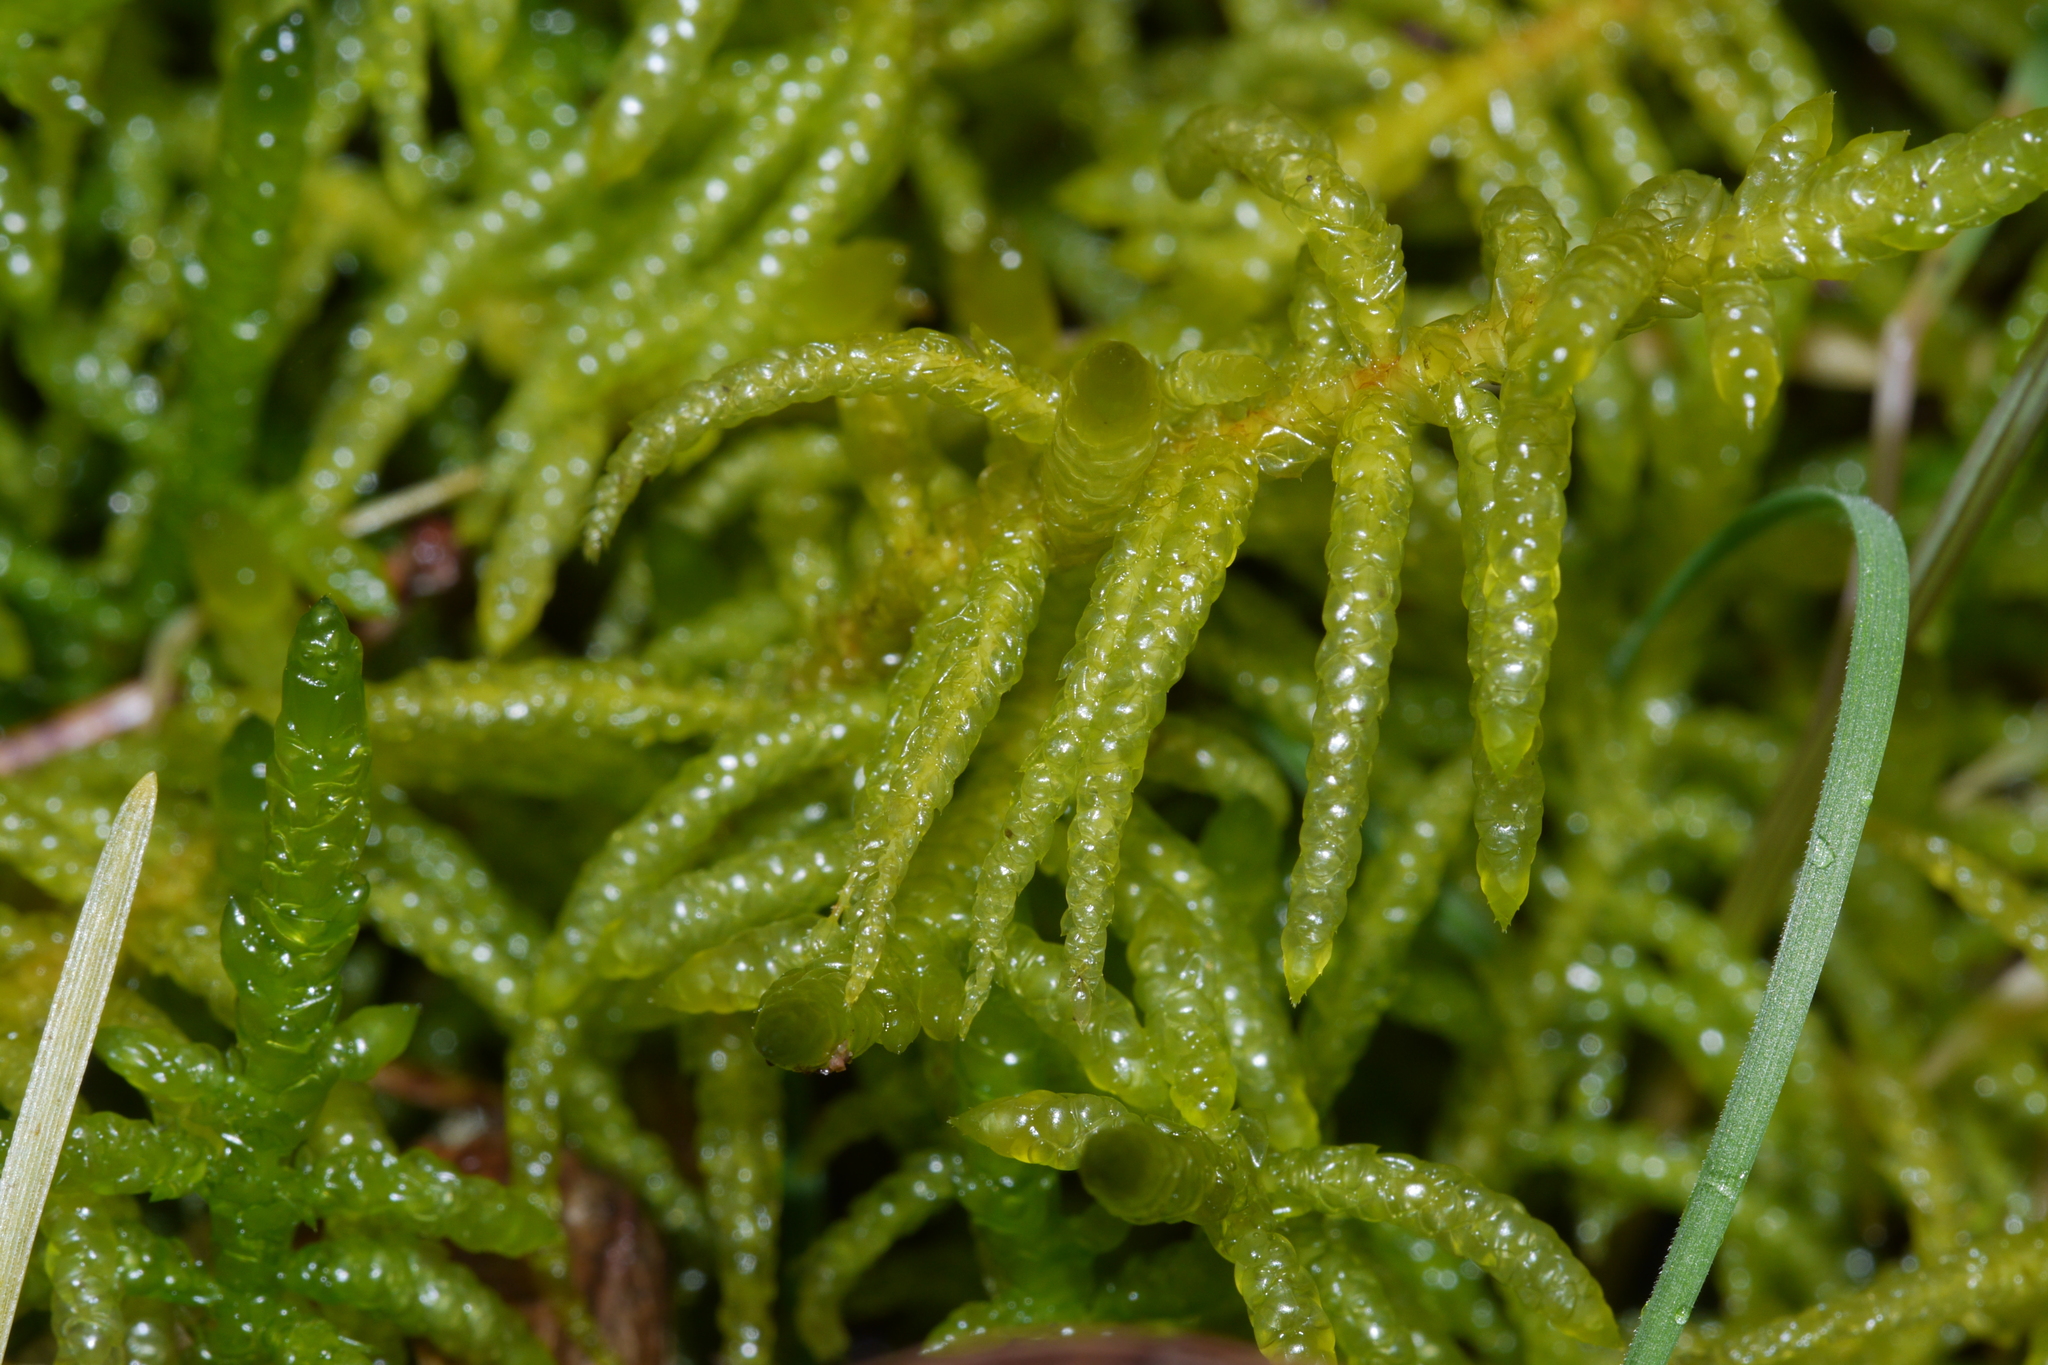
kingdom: Plantae
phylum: Bryophyta
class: Bryopsida
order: Hypnales
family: Brachytheciaceae
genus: Pseudoscleropodium
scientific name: Pseudoscleropodium purum
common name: Neat feather-moss
